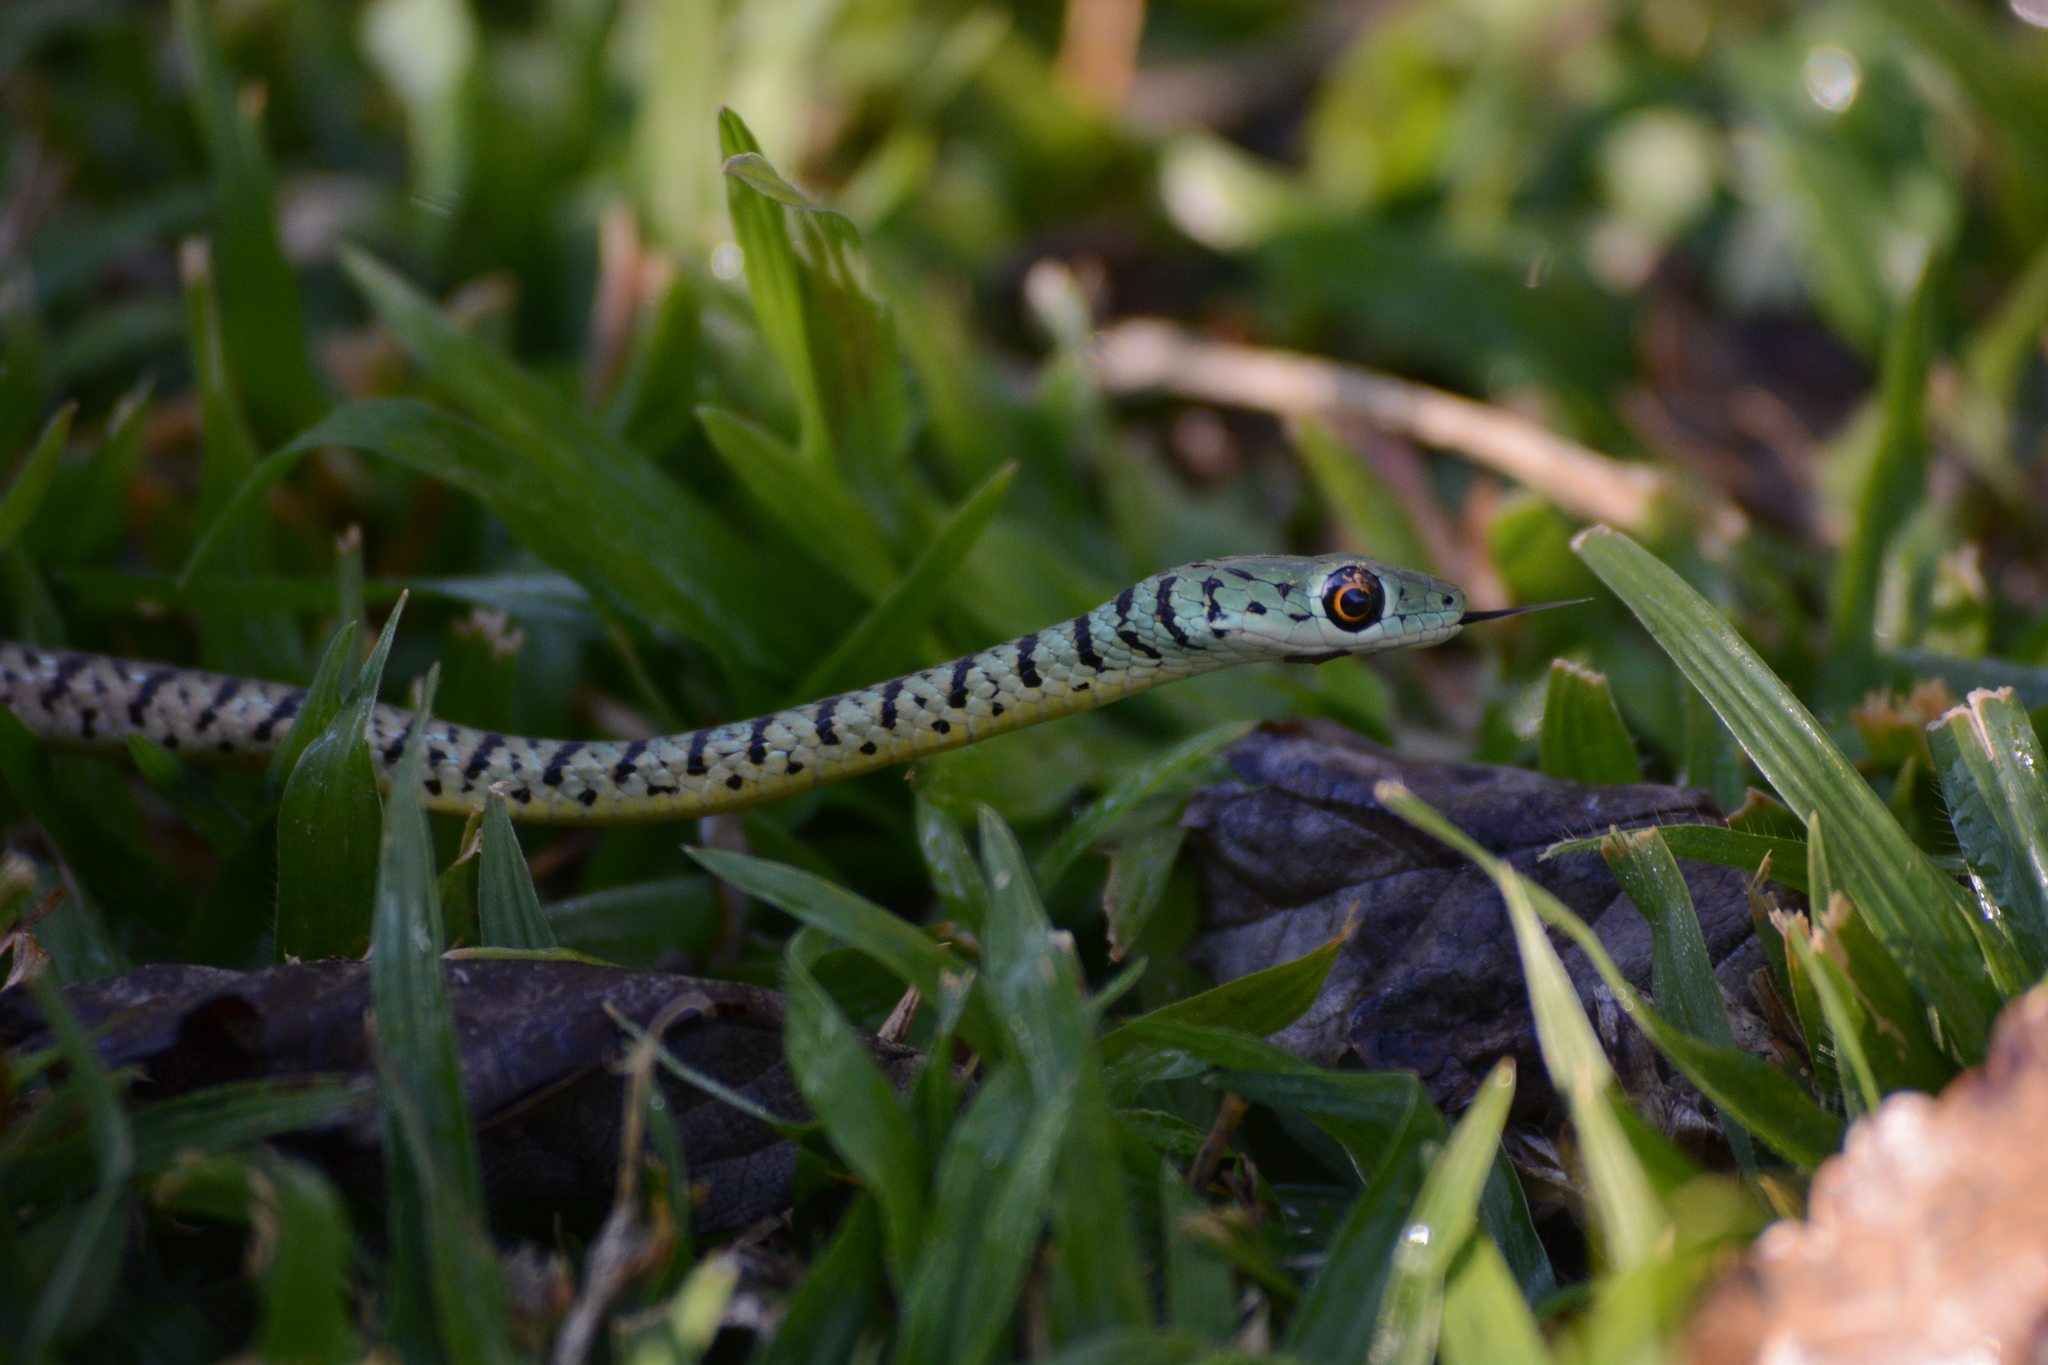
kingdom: Animalia
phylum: Chordata
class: Squamata
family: Colubridae
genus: Philothamnus
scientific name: Philothamnus semivariegatus
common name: Spotted bush snake
